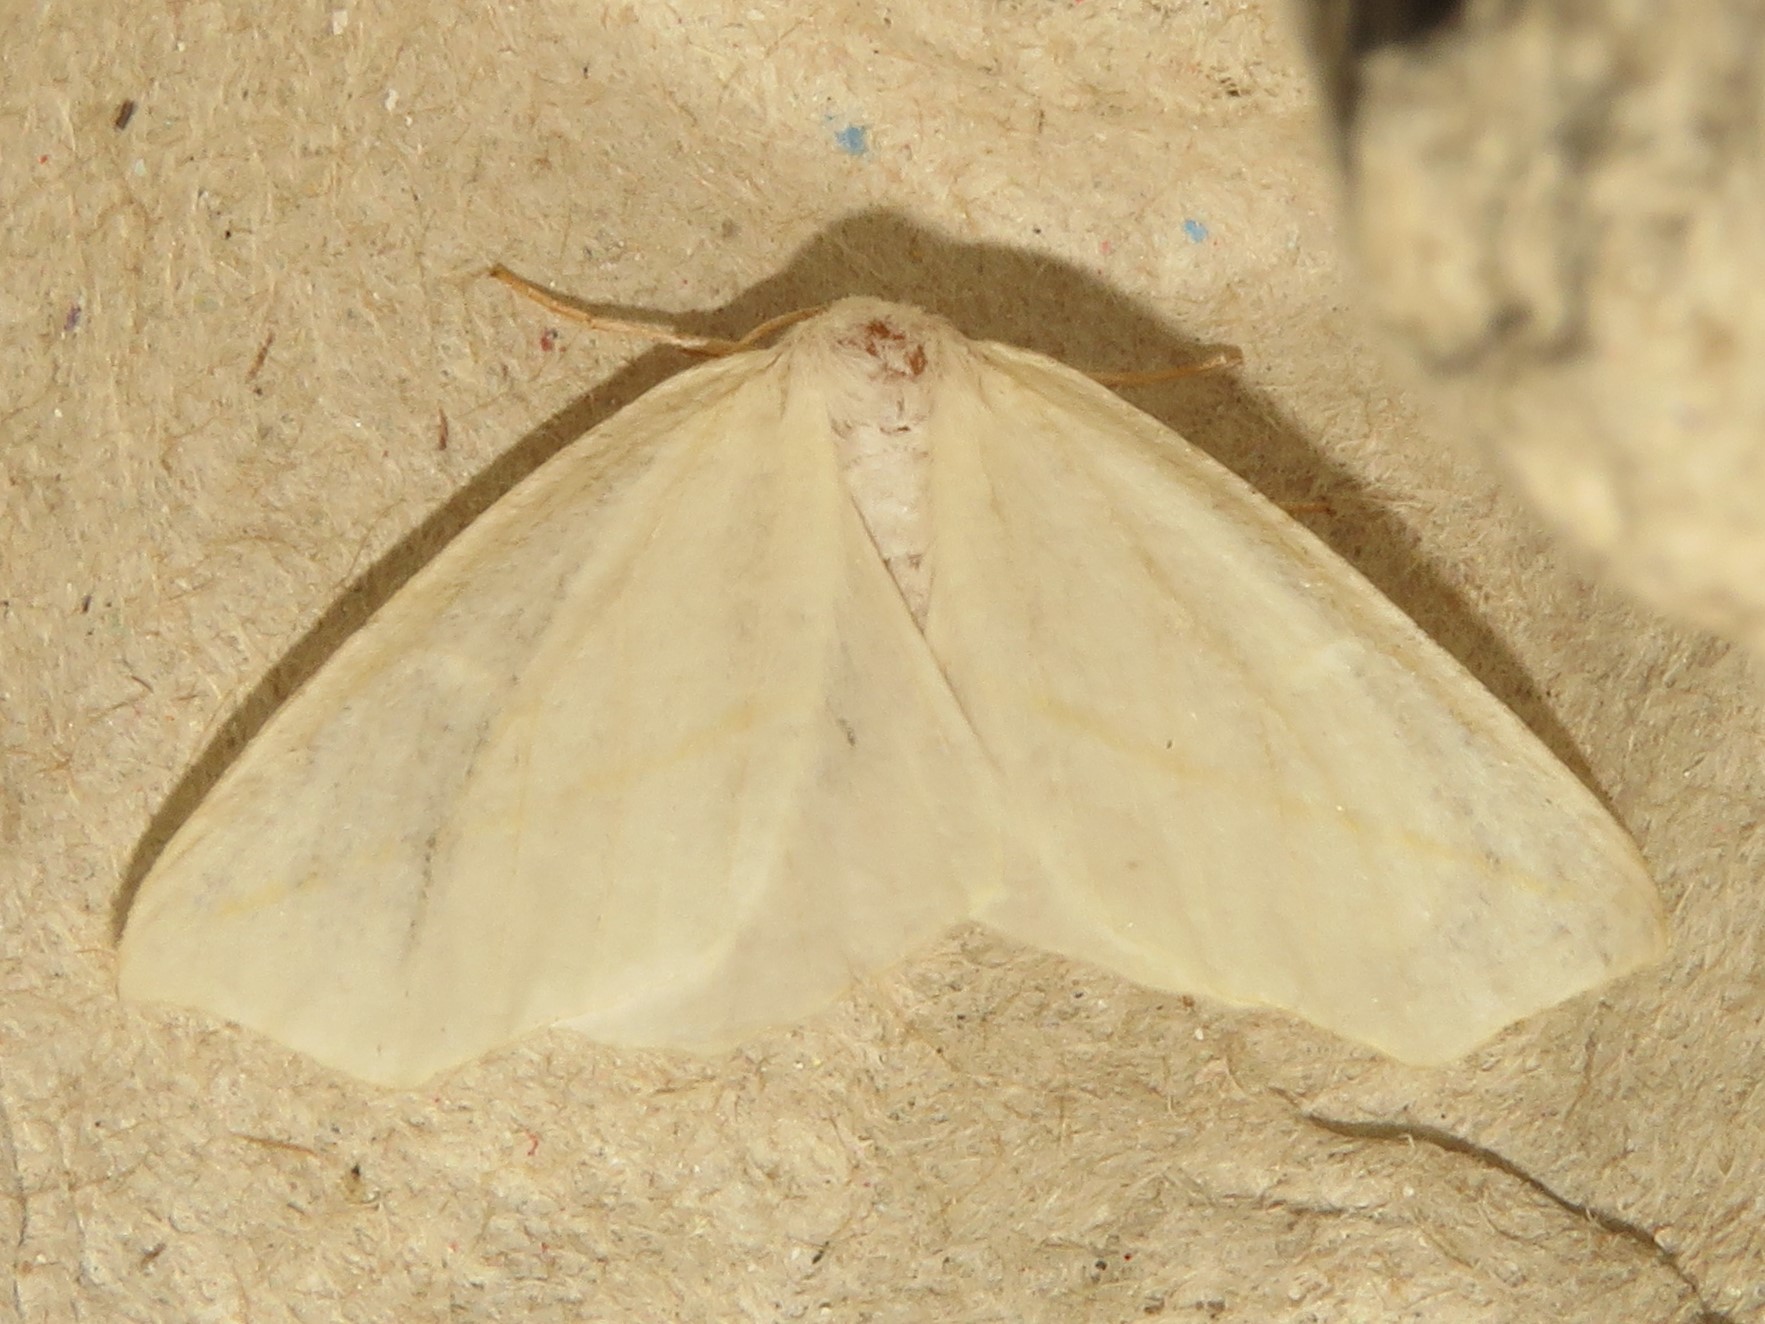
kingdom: Animalia
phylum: Arthropoda
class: Insecta
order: Lepidoptera
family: Geometridae
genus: Tetracis
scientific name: Tetracis cachexiata
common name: White slant-line
